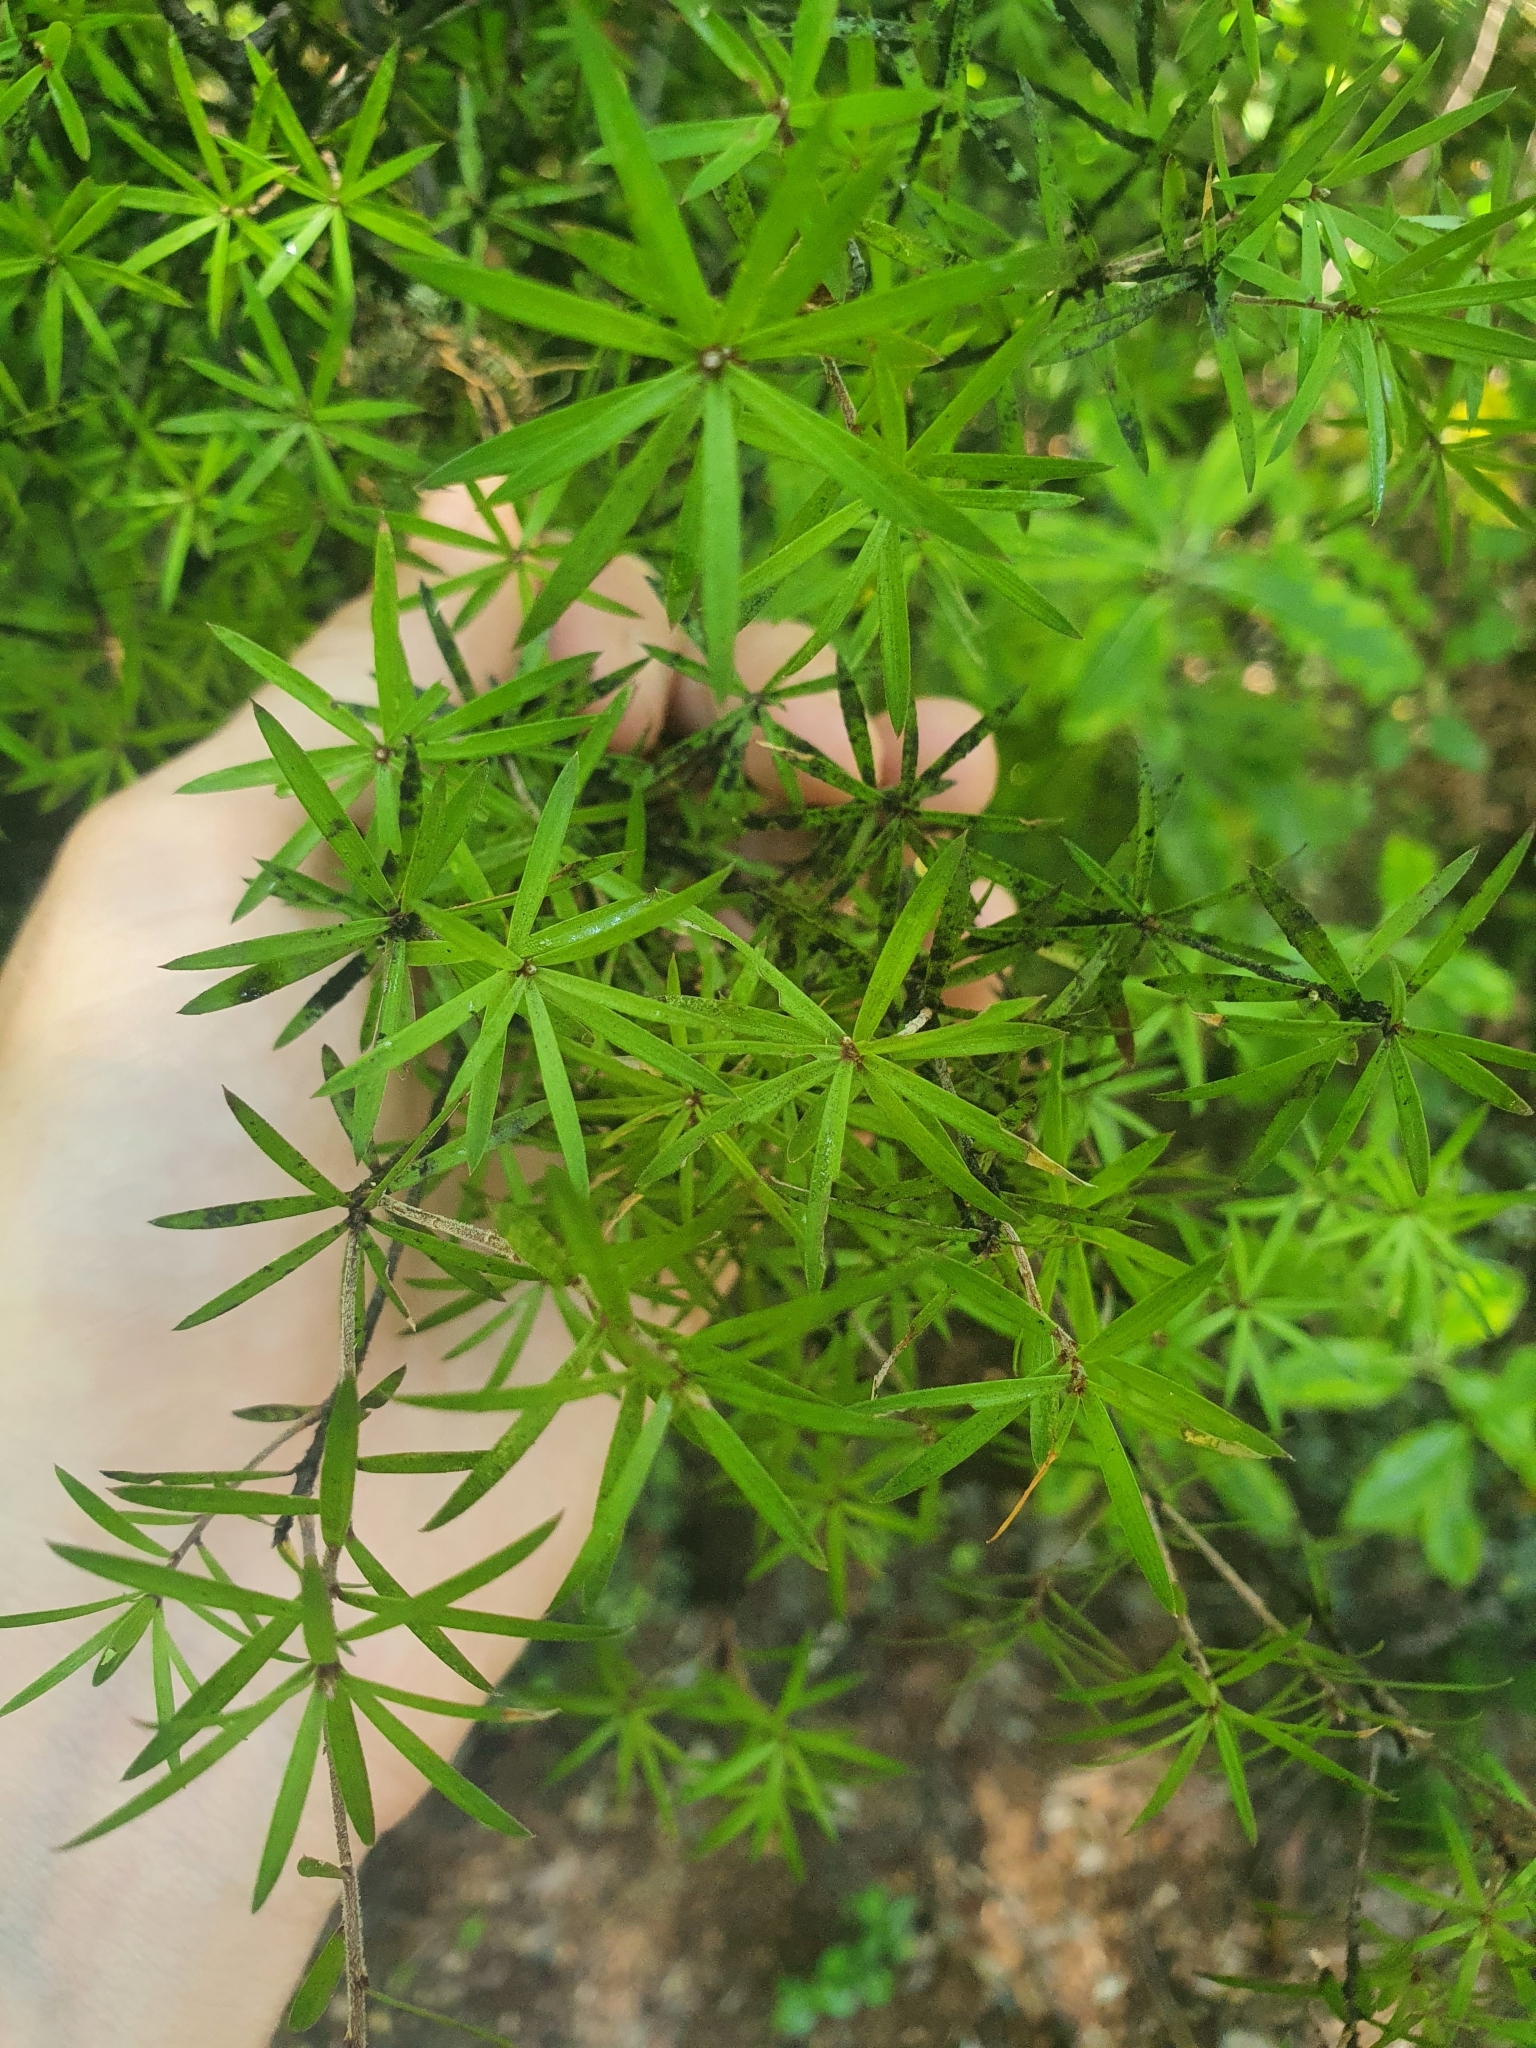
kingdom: Plantae
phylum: Tracheophyta
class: Magnoliopsida
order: Ericales
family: Ericaceae
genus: Leucopogon
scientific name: Leucopogon fasciculatus
